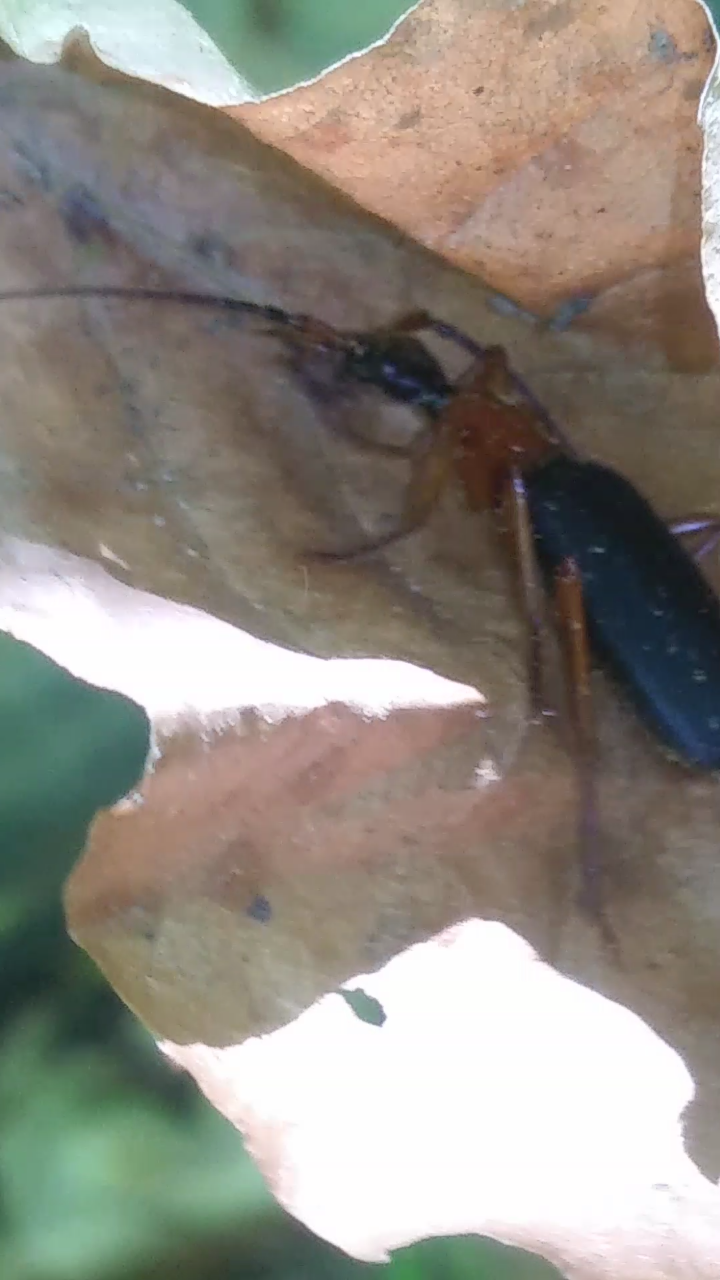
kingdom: Animalia
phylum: Arthropoda
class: Insecta
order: Coleoptera
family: Carabidae
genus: Galerita
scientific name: Galerita bicolor
